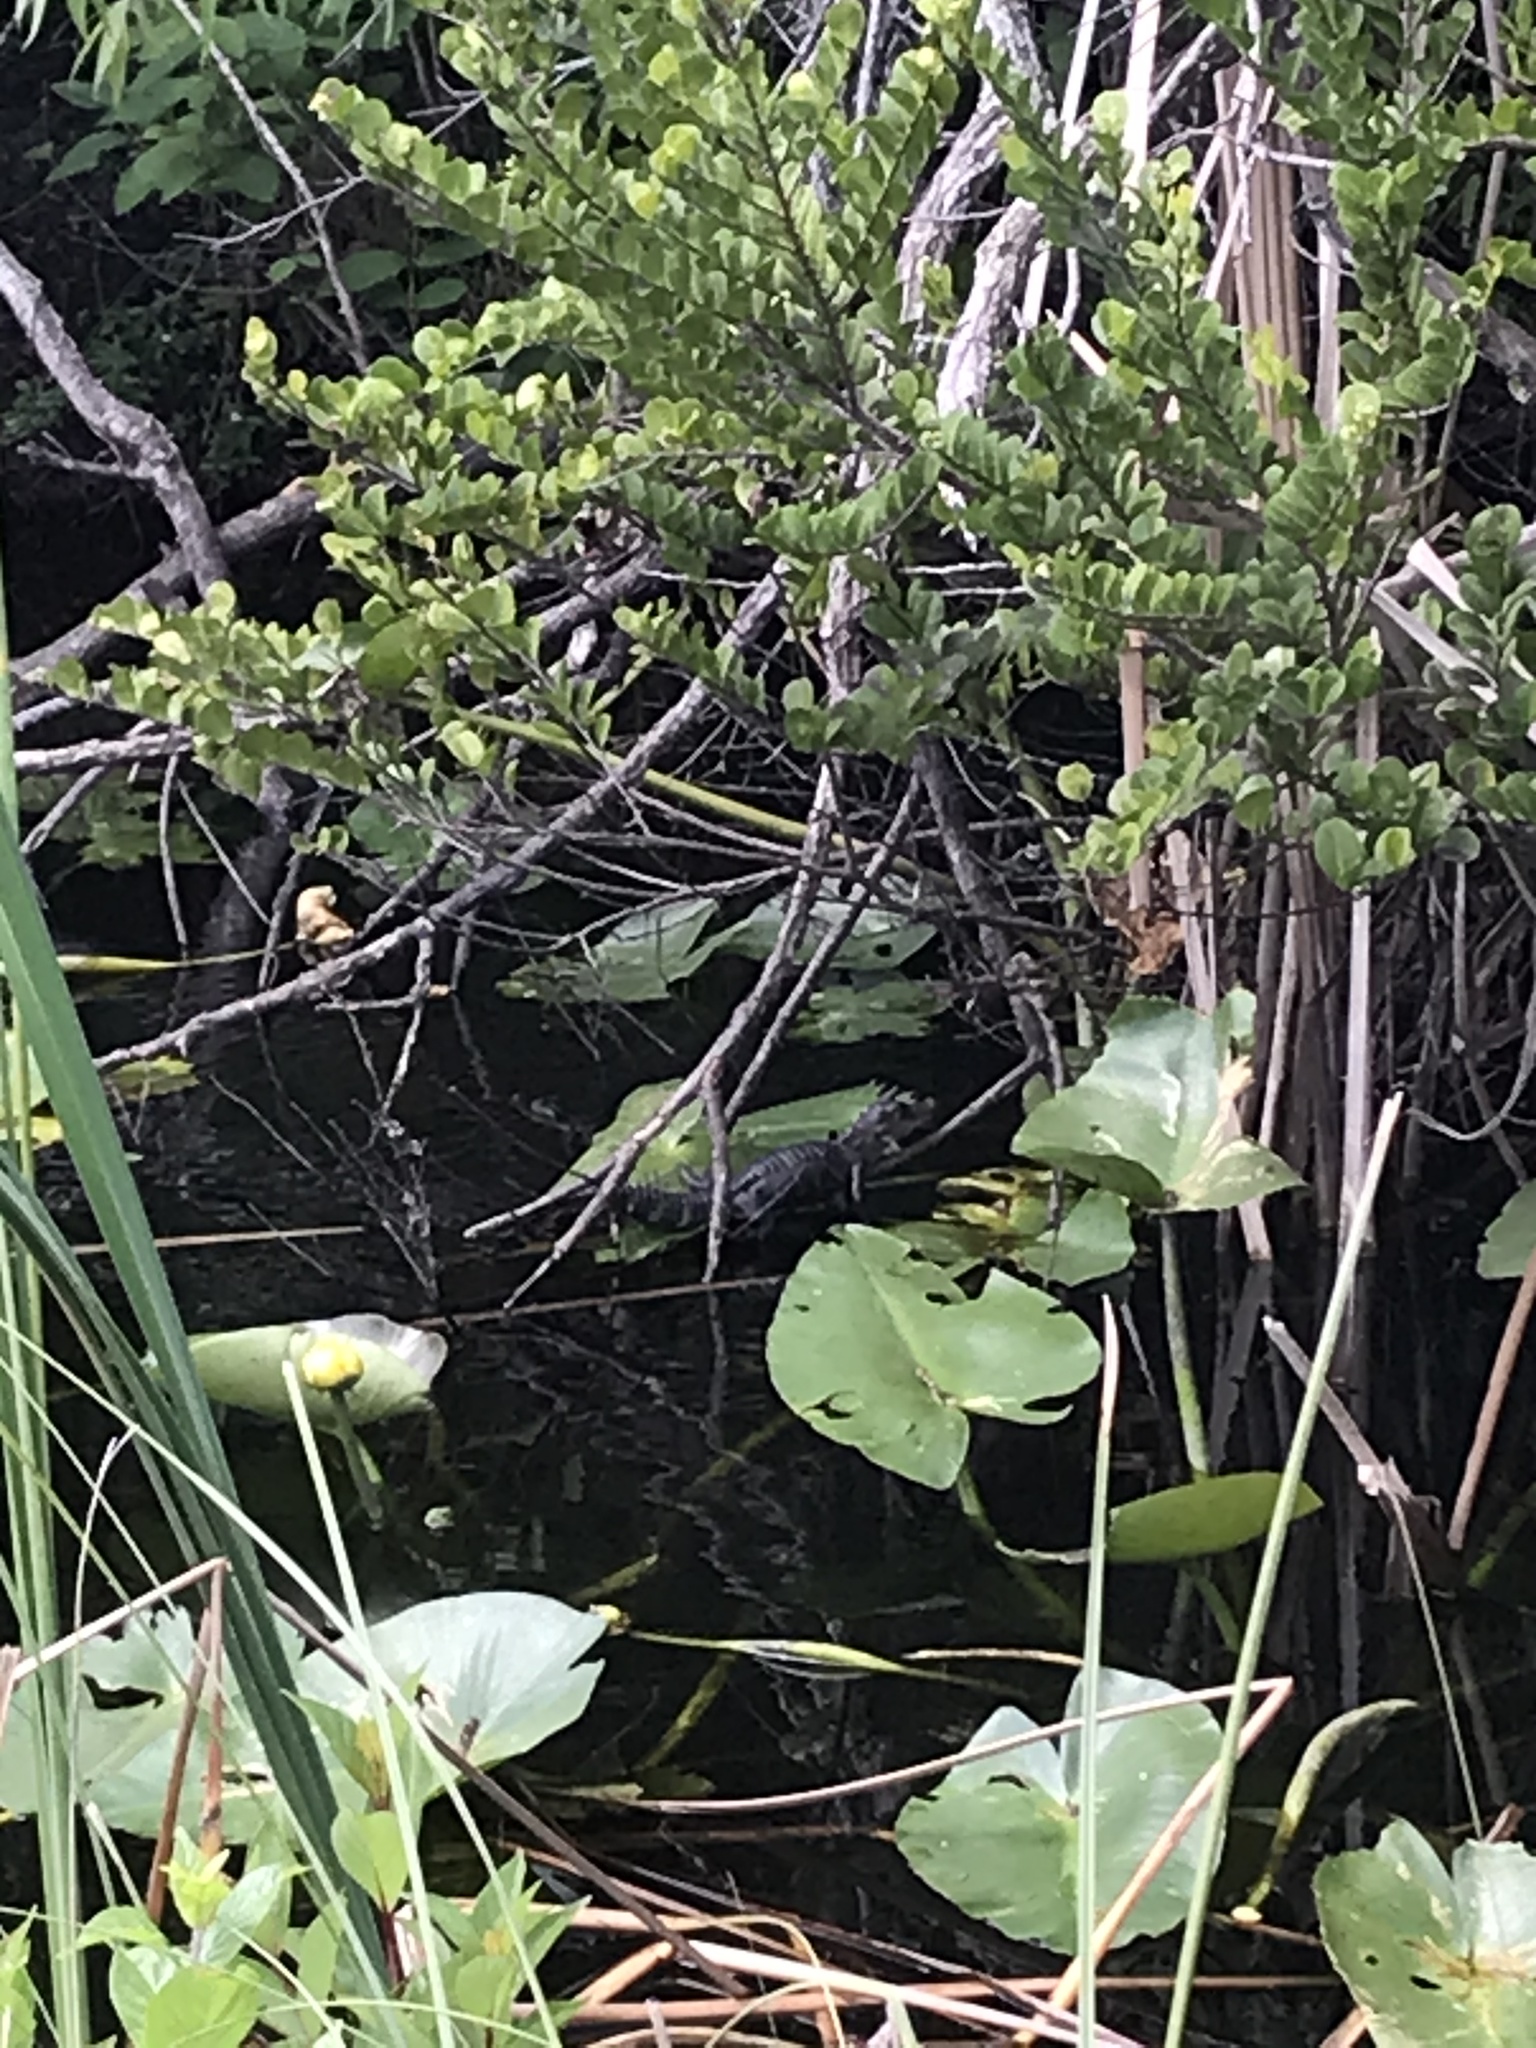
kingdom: Animalia
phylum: Chordata
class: Crocodylia
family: Alligatoridae
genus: Alligator
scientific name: Alligator mississippiensis
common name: American alligator
